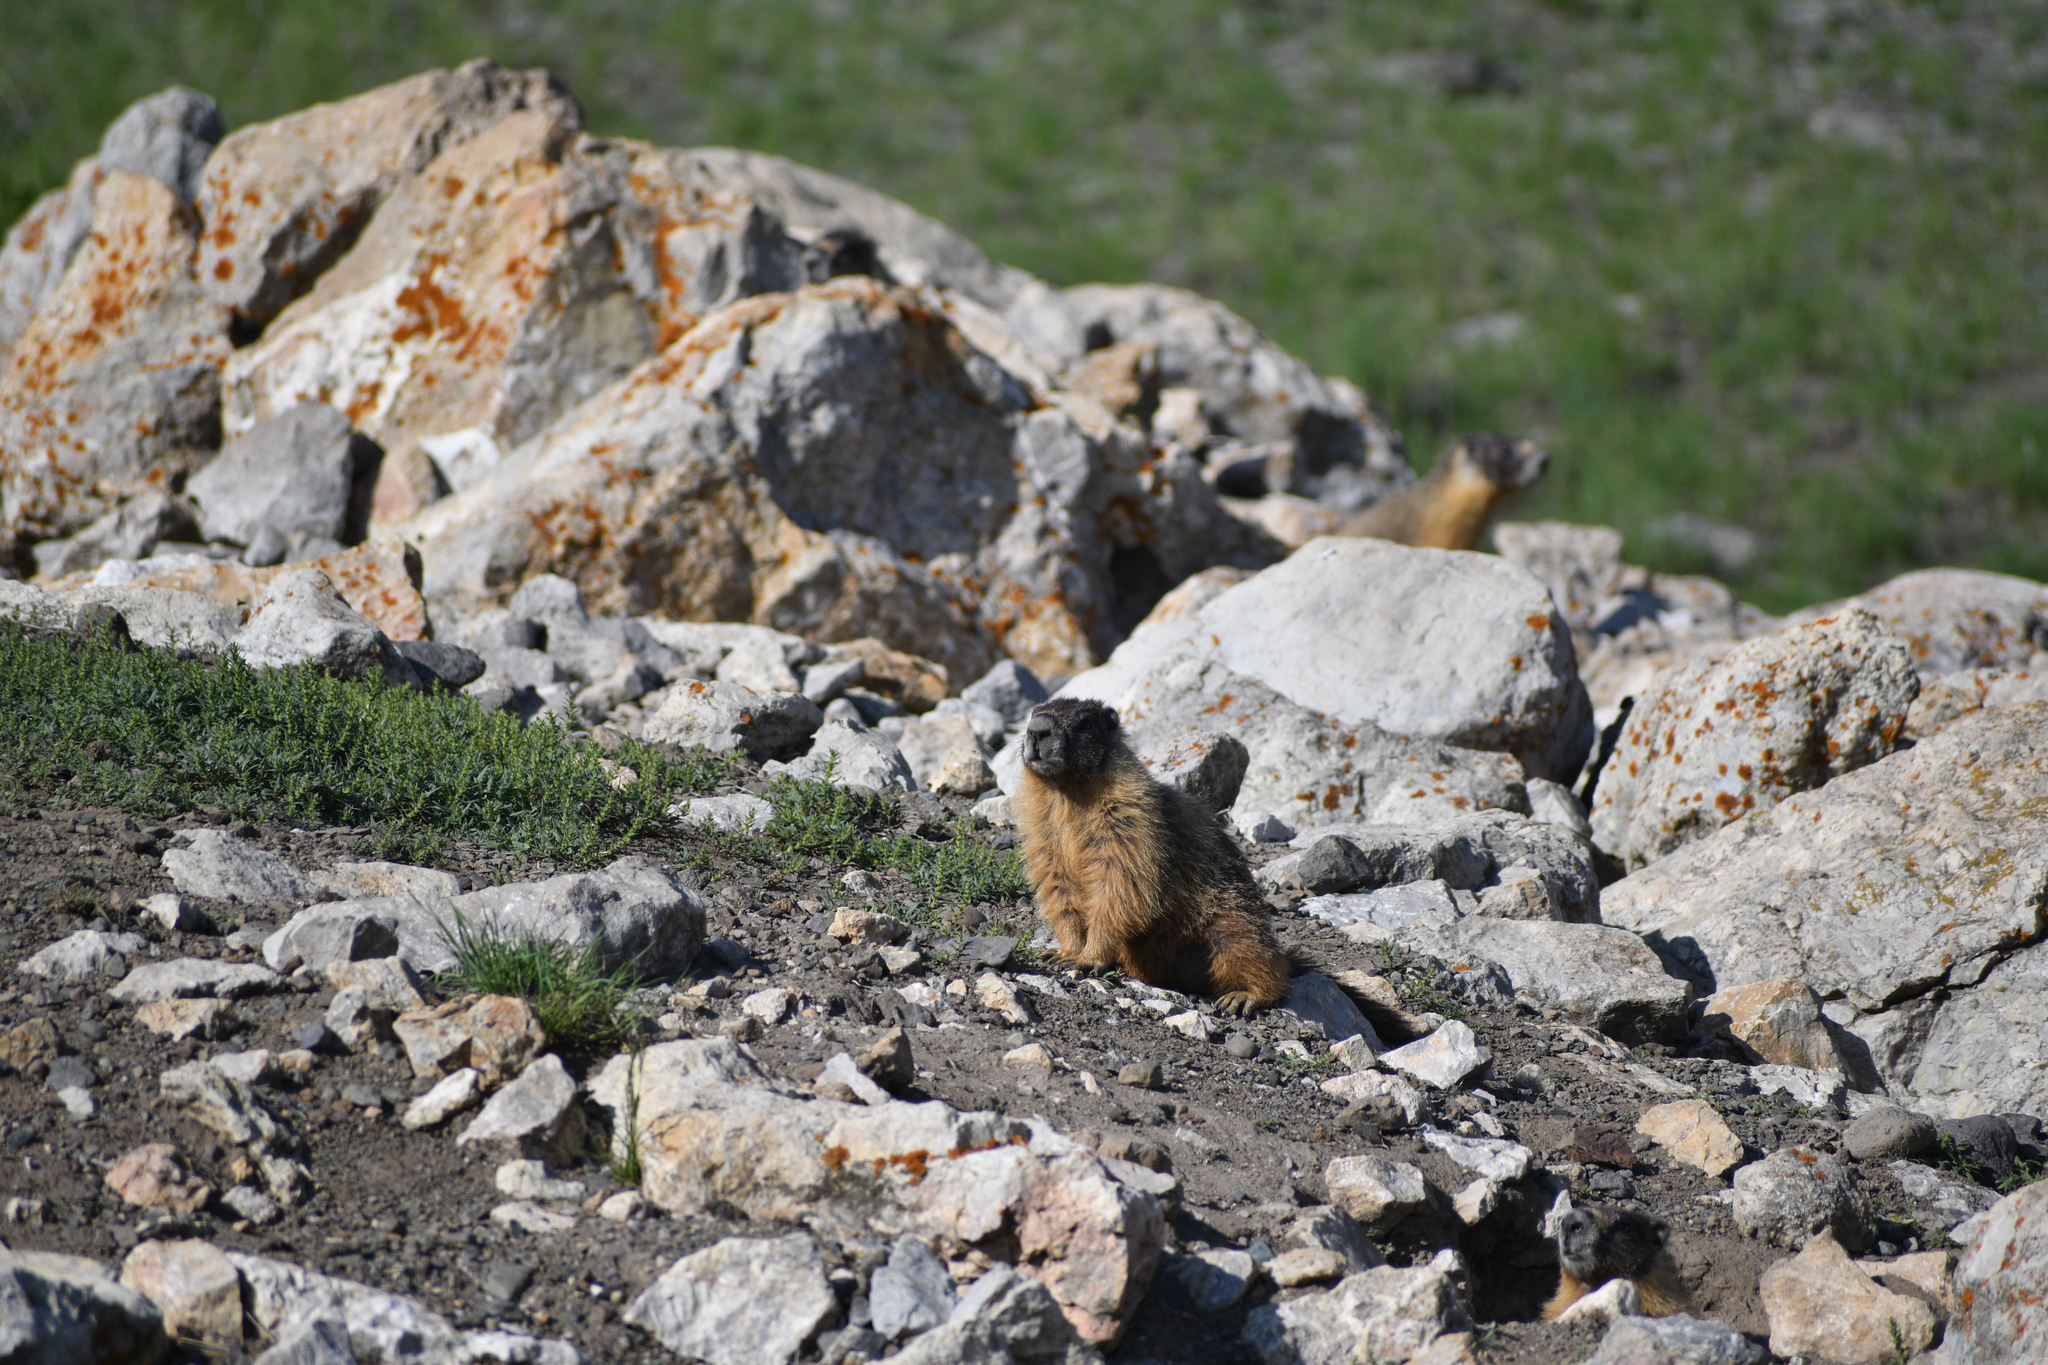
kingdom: Animalia
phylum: Chordata
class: Mammalia
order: Rodentia
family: Sciuridae
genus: Marmota
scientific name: Marmota flaviventris
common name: Yellow-bellied marmot
